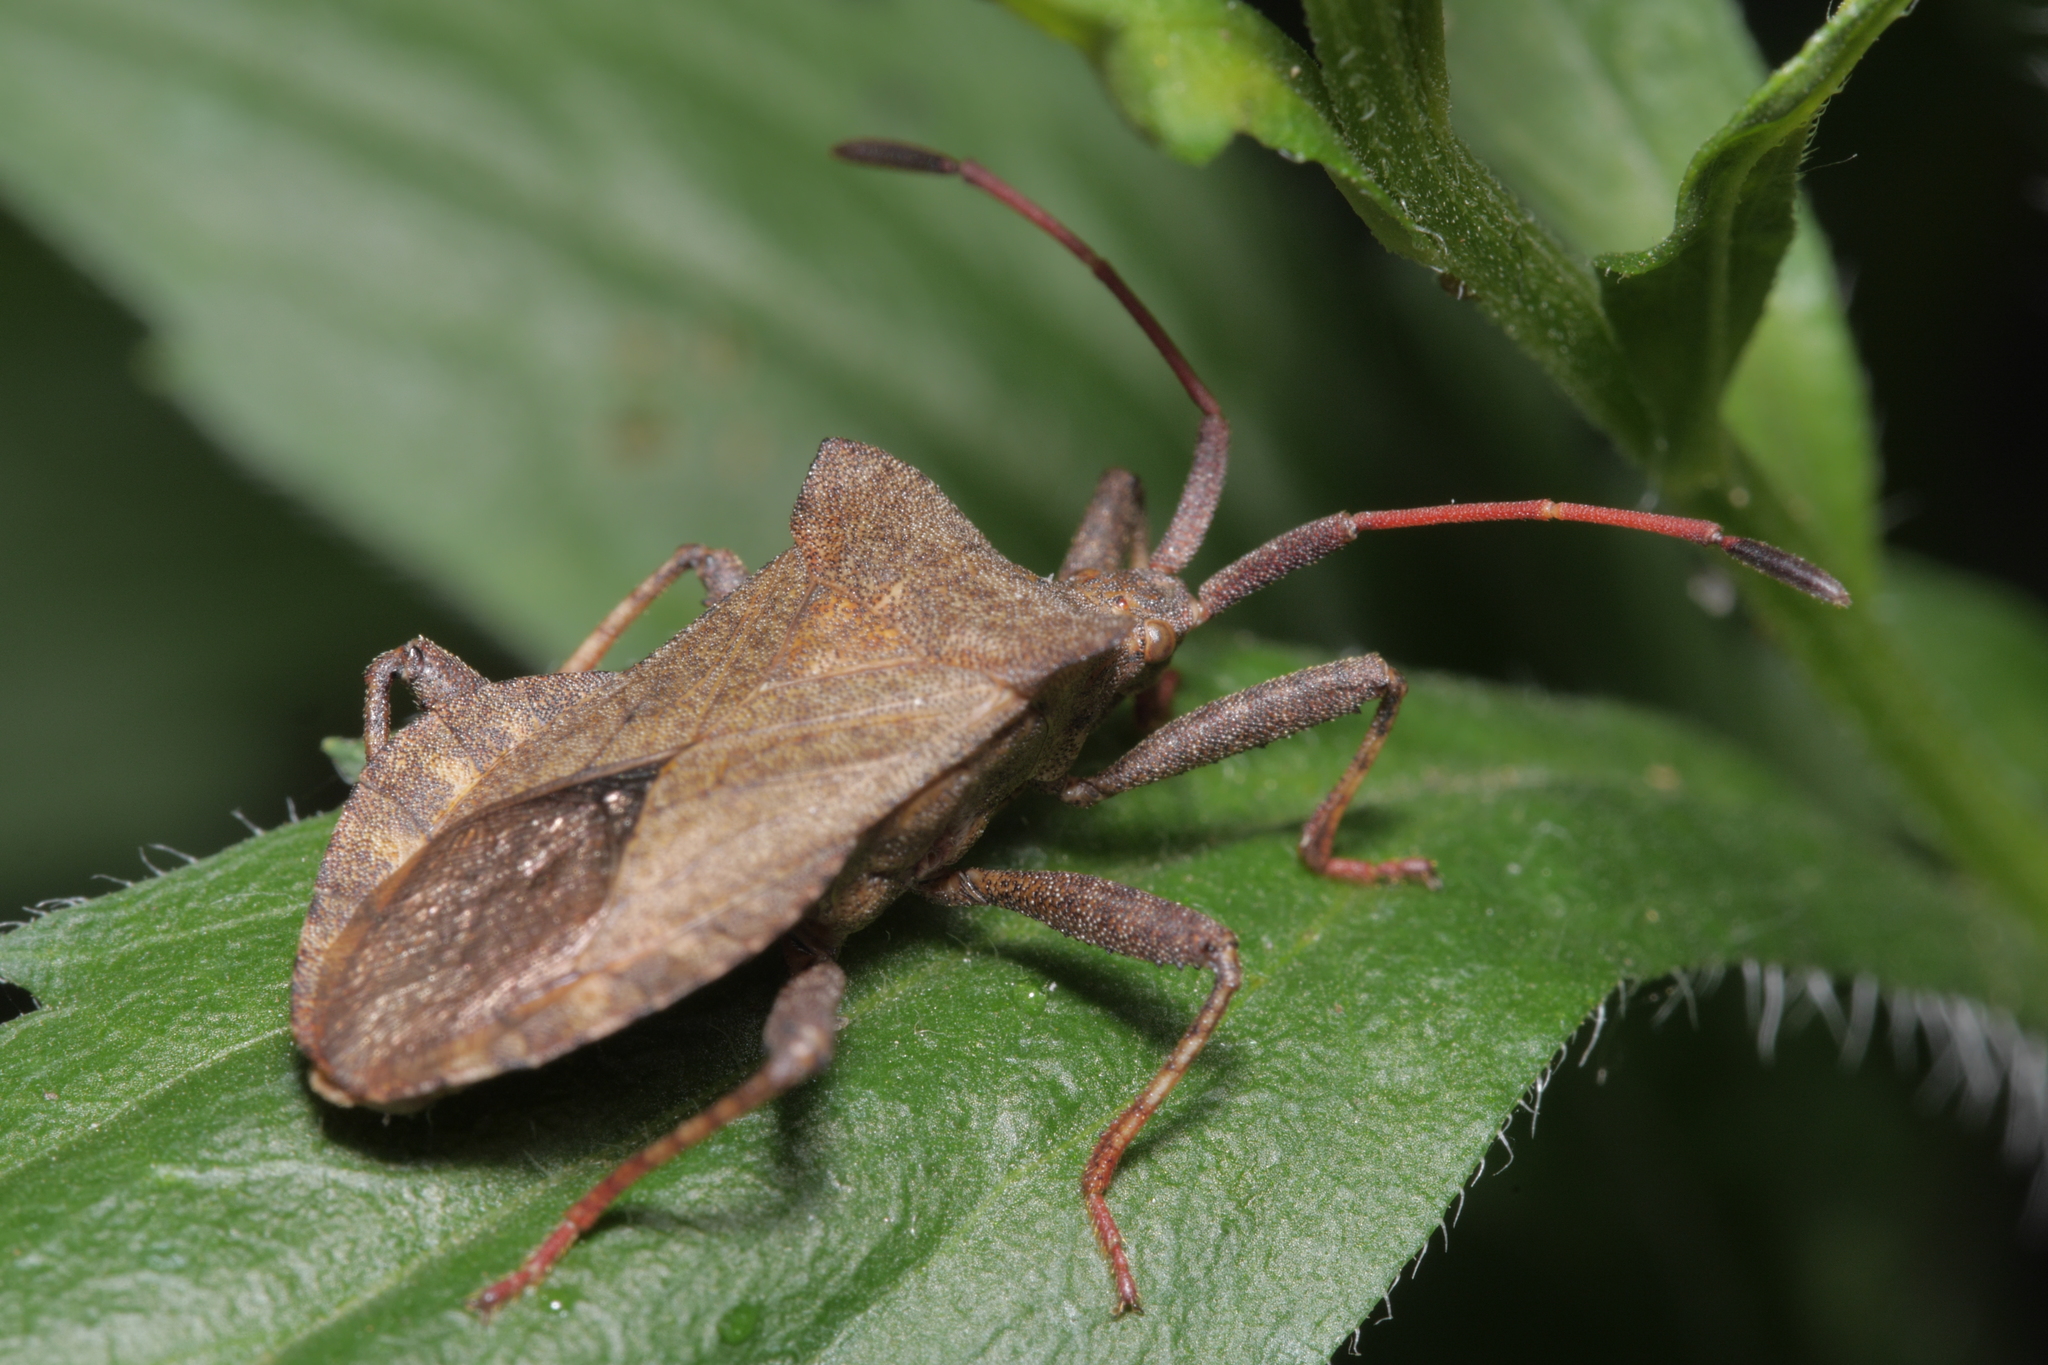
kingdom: Animalia
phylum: Arthropoda
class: Insecta
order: Hemiptera
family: Coreidae
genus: Coreus
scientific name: Coreus marginatus
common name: Dock bug
